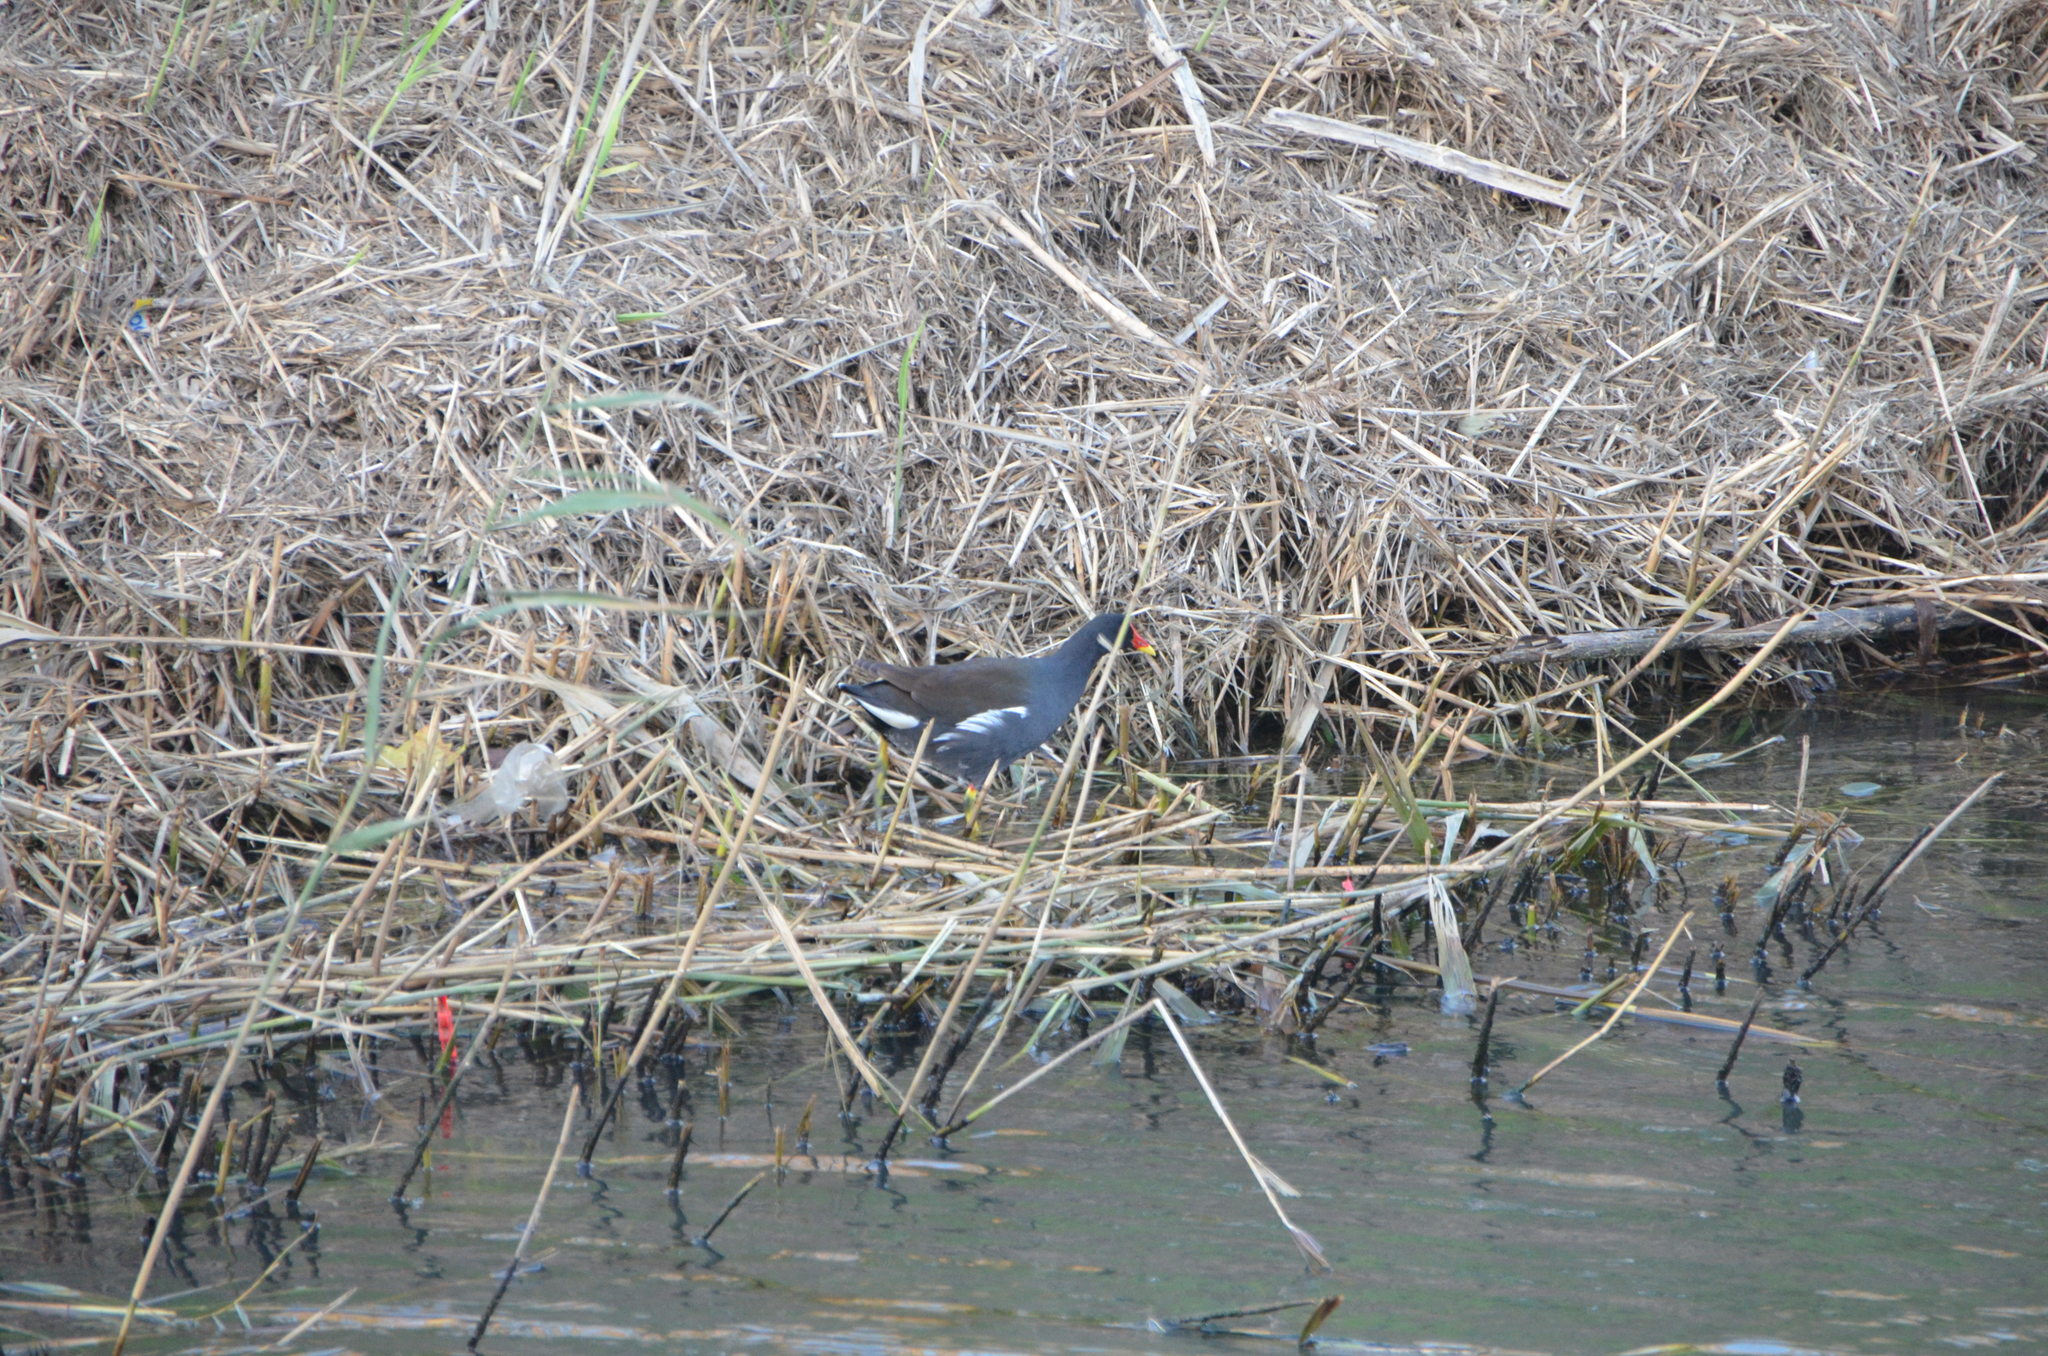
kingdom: Animalia
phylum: Chordata
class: Aves
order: Gruiformes
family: Rallidae
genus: Gallinula
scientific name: Gallinula chloropus
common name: Common moorhen
